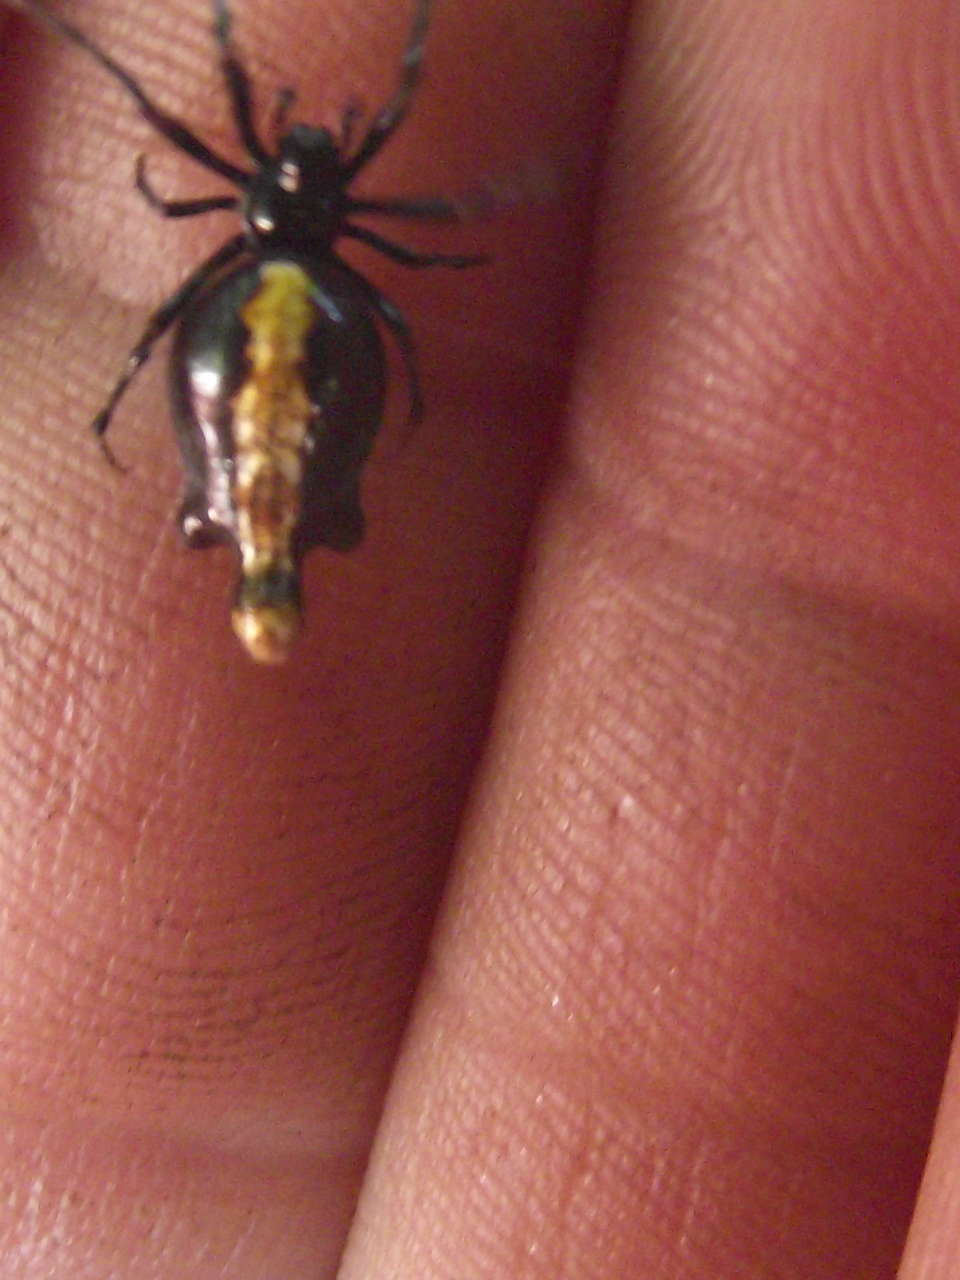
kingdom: Animalia
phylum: Arthropoda
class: Arachnida
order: Araneae
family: Araneidae
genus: Cyclosa
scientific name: Cyclosa trilobata
